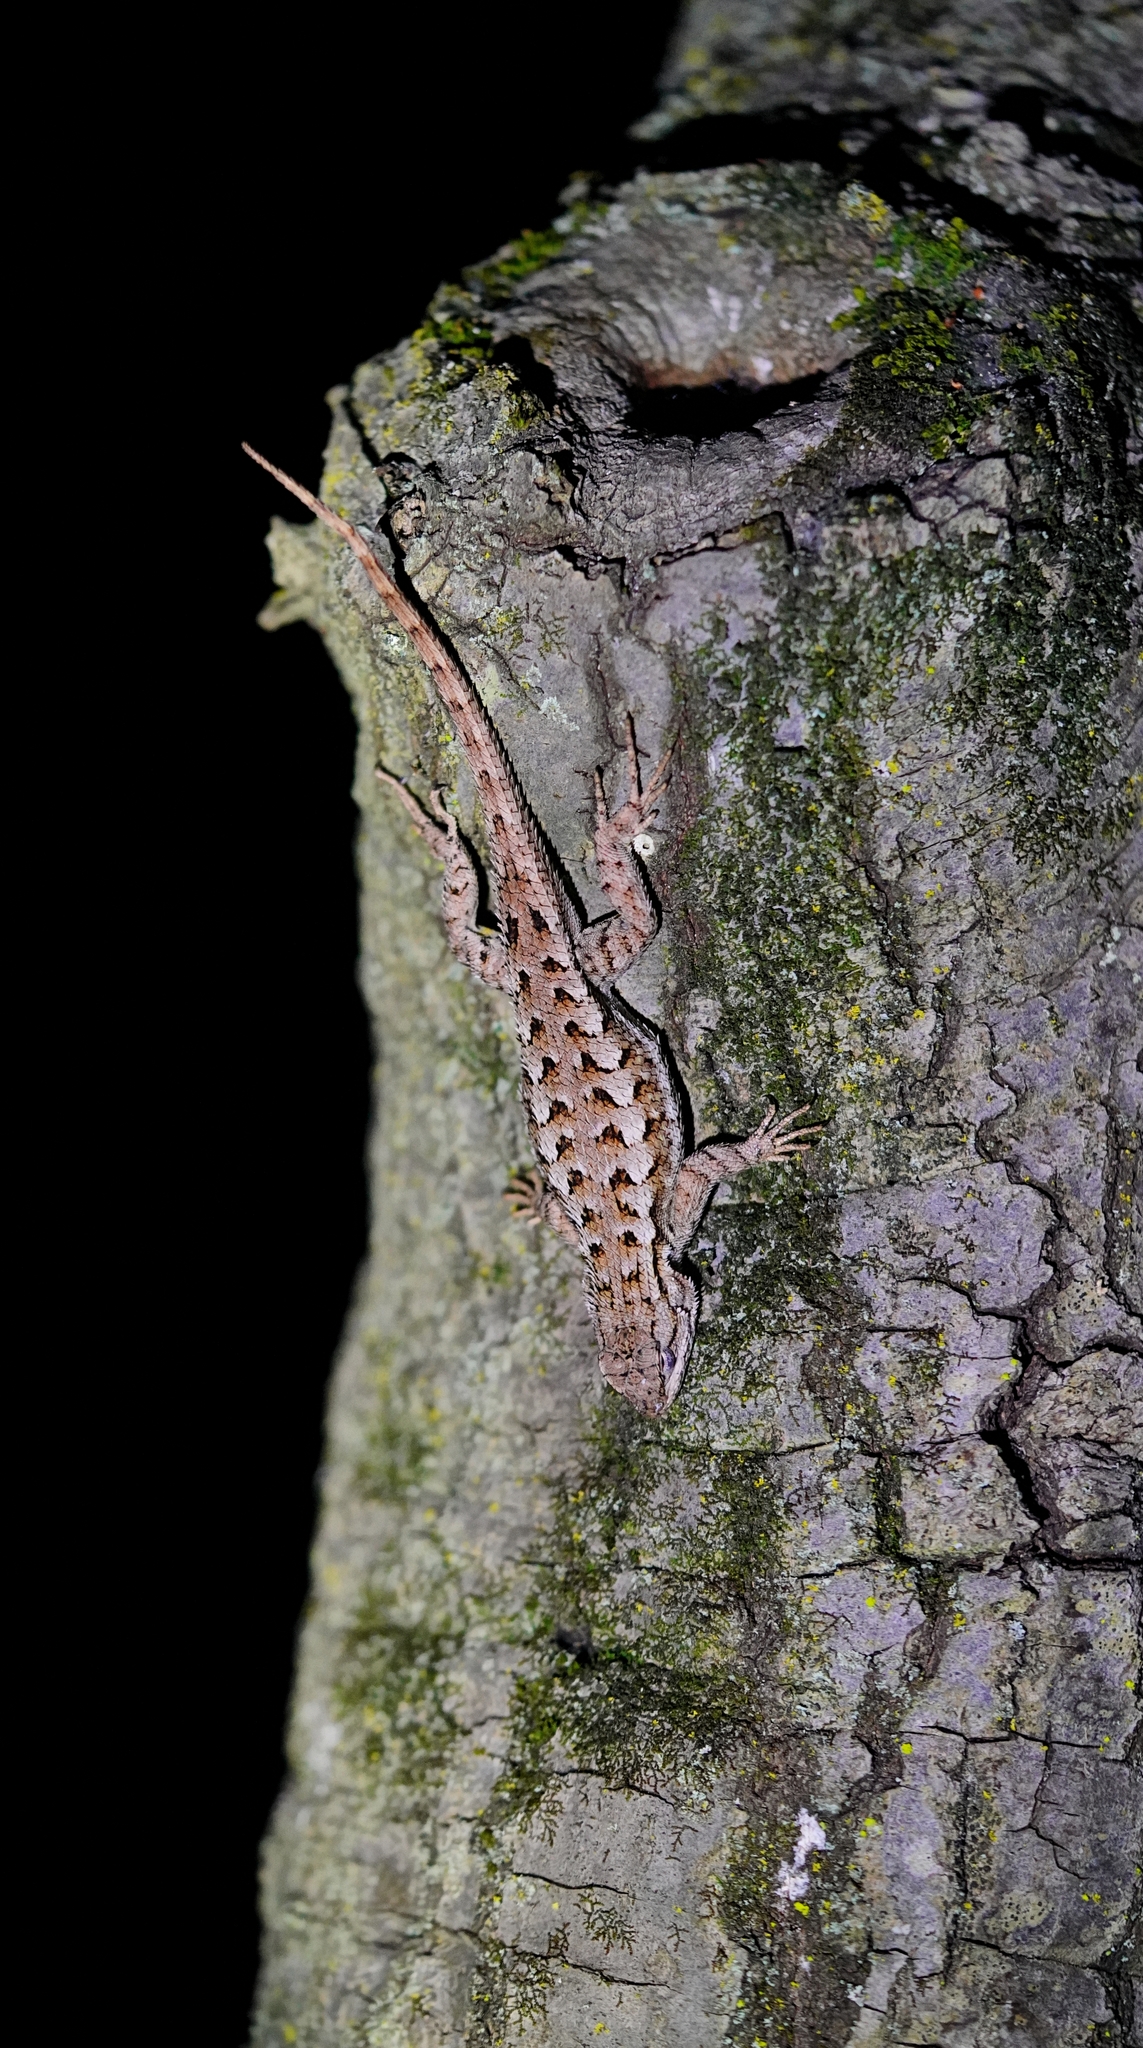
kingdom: Animalia
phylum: Chordata
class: Squamata
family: Phrynosomatidae
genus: Sceloporus
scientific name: Sceloporus occidentalis
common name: Western fence lizard
